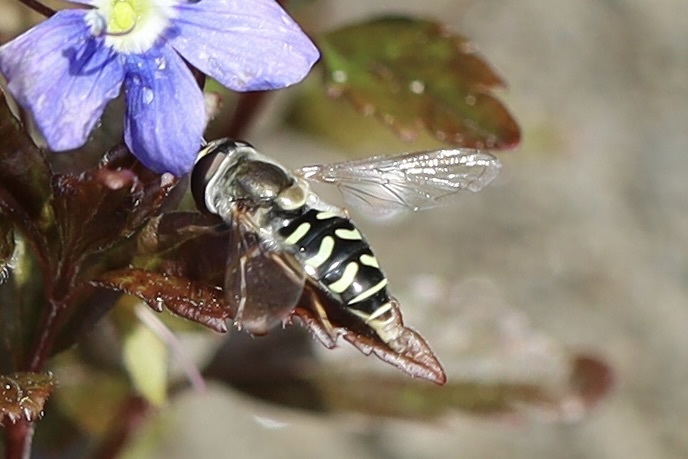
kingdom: Animalia
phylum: Arthropoda
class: Insecta
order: Diptera
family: Syrphidae
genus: Eupeodes
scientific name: Eupeodes volucris
